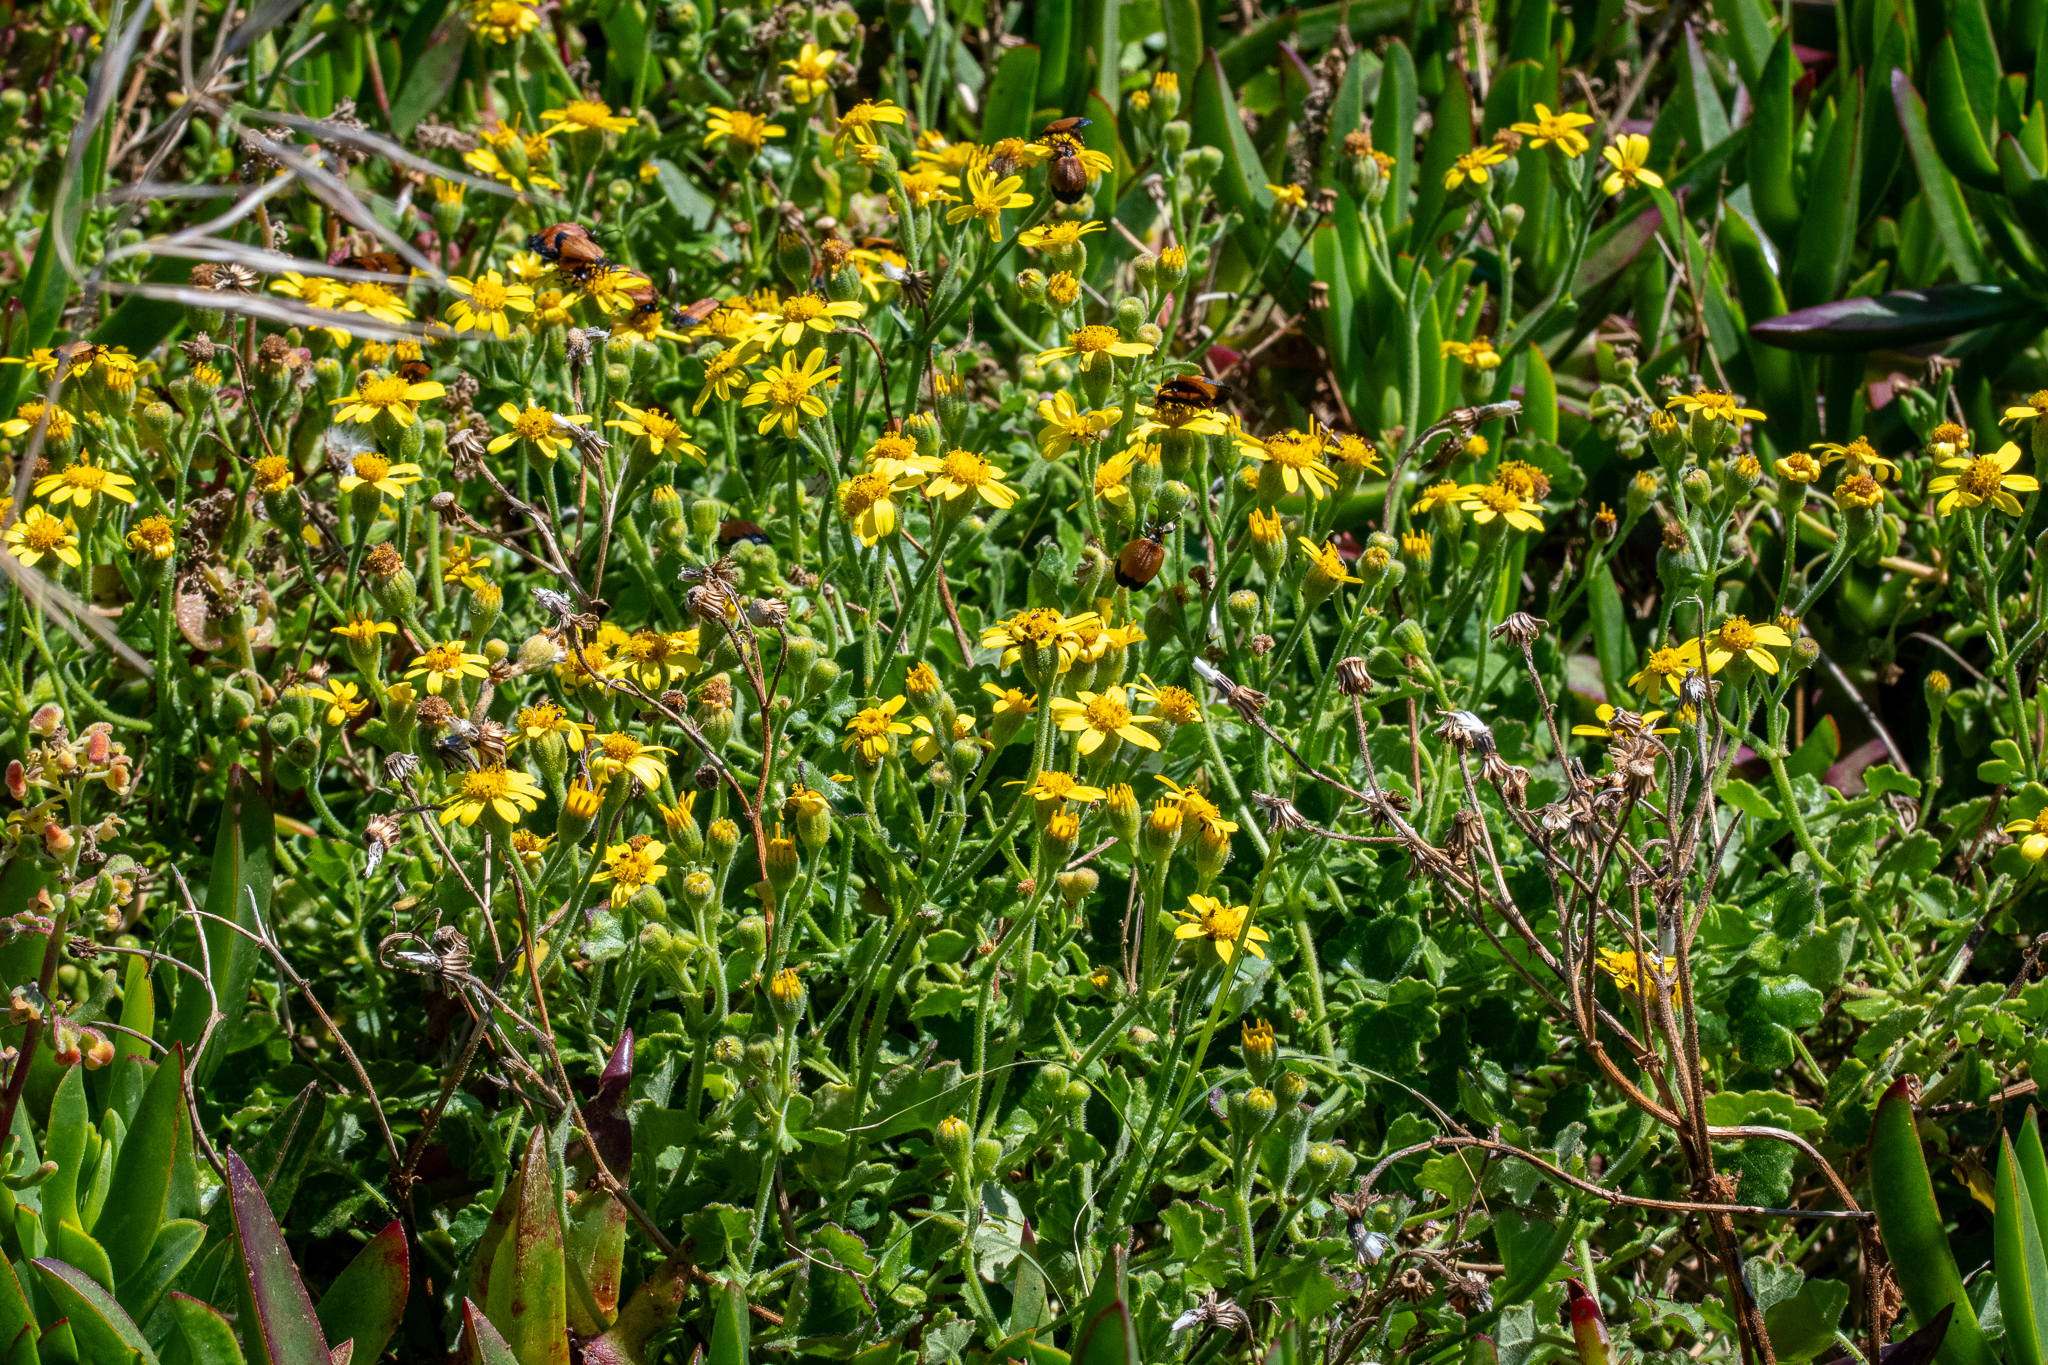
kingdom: Plantae
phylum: Tracheophyta
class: Magnoliopsida
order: Asterales
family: Asteraceae
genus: Cineraria
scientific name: Cineraria geifolia
